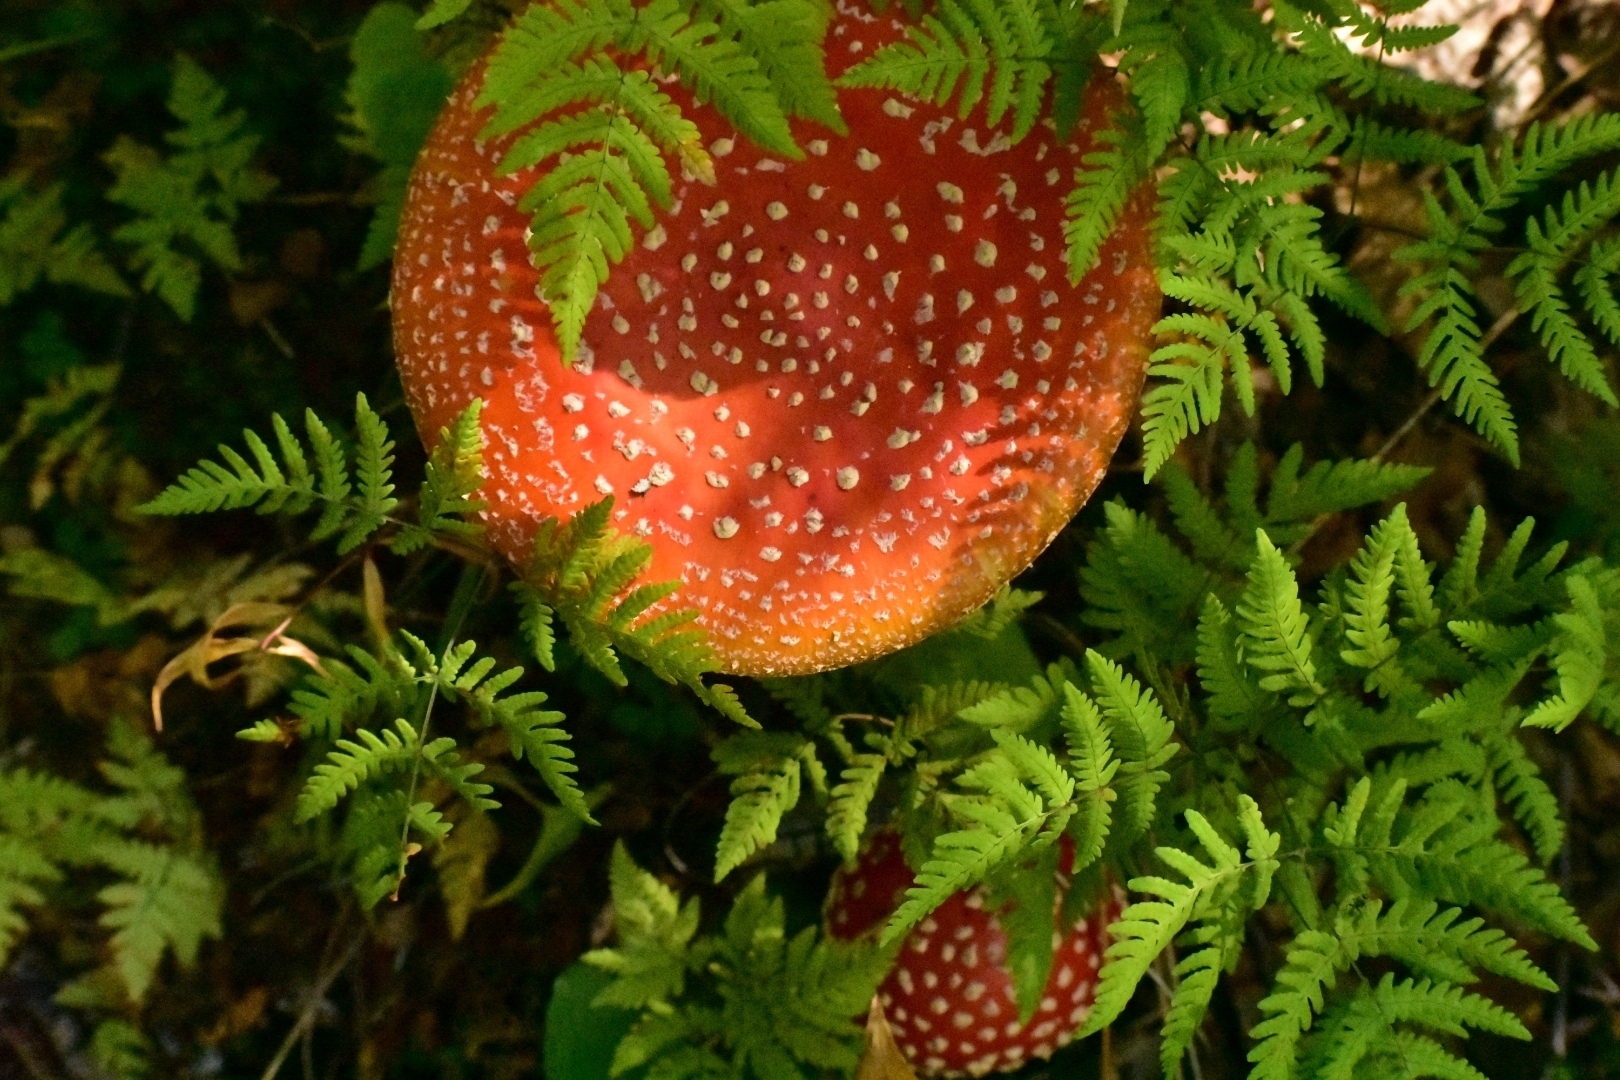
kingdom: Fungi
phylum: Basidiomycota
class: Agaricomycetes
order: Agaricales
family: Amanitaceae
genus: Amanita
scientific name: Amanita muscaria
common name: Fly agaric
